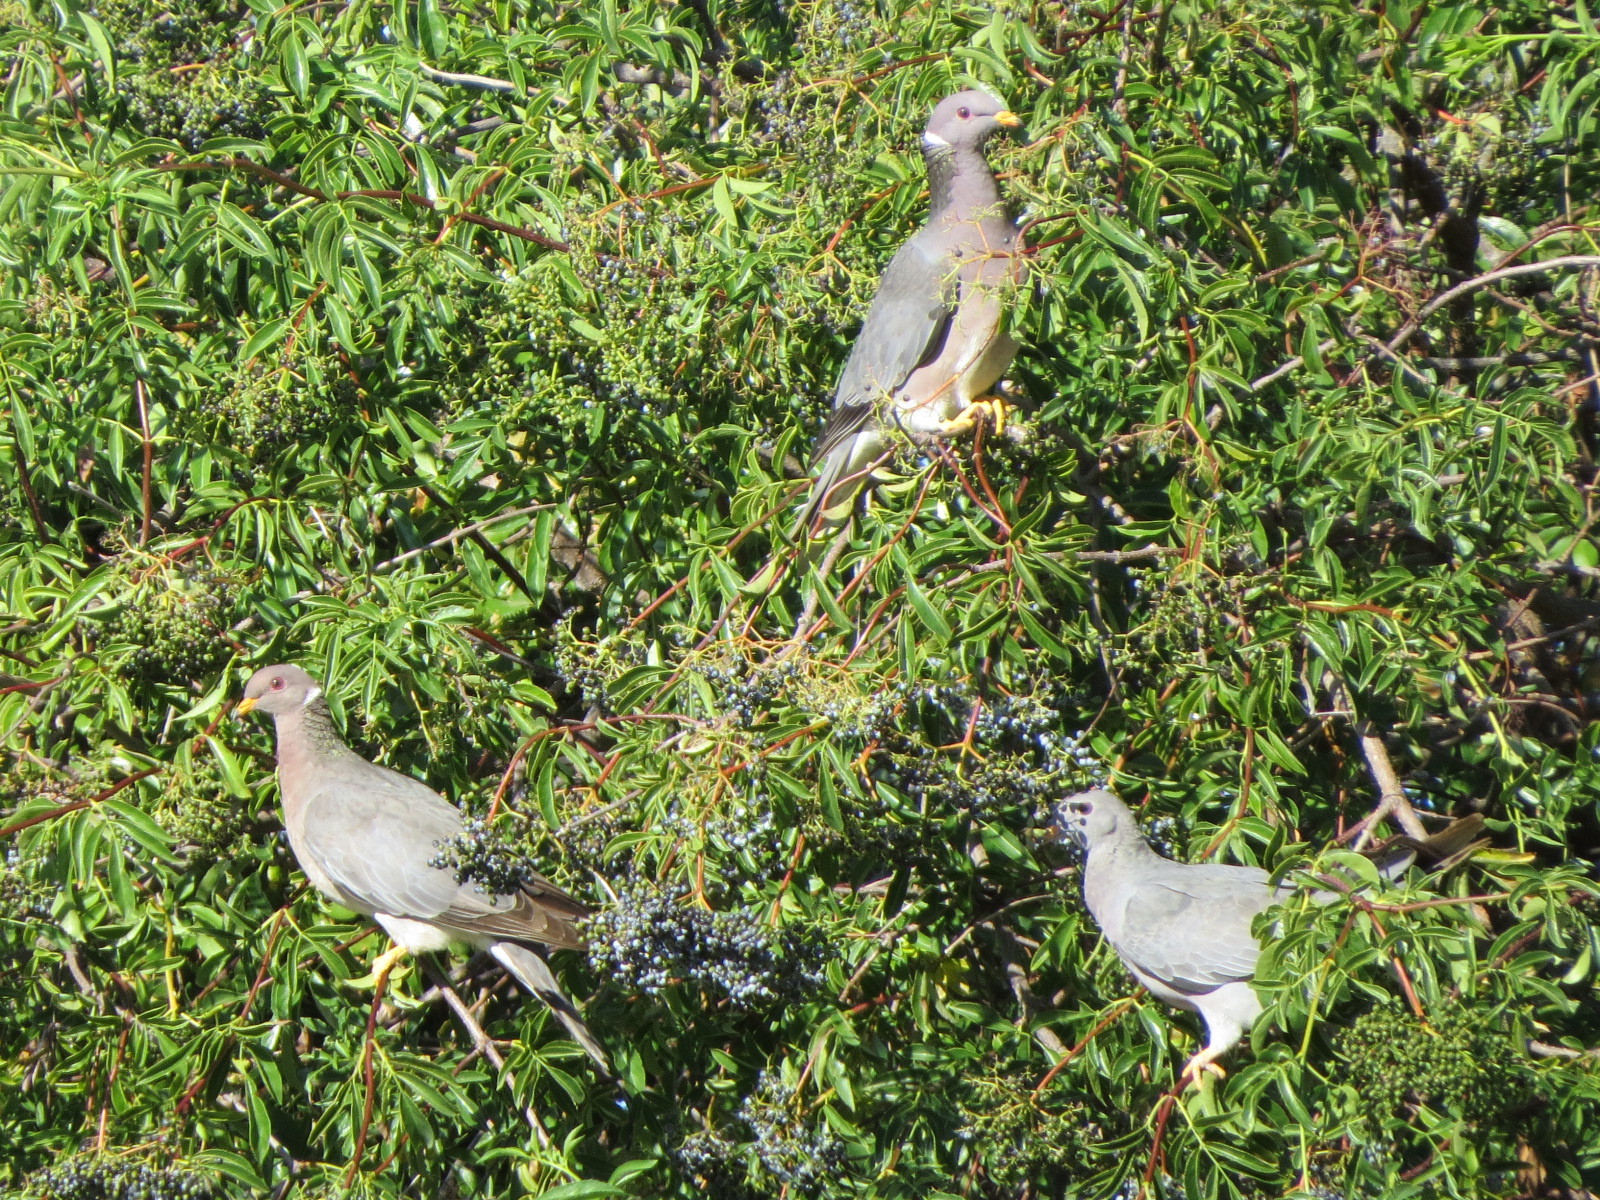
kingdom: Animalia
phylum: Chordata
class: Aves
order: Columbiformes
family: Columbidae
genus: Patagioenas
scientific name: Patagioenas fasciata
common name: Band-tailed pigeon
